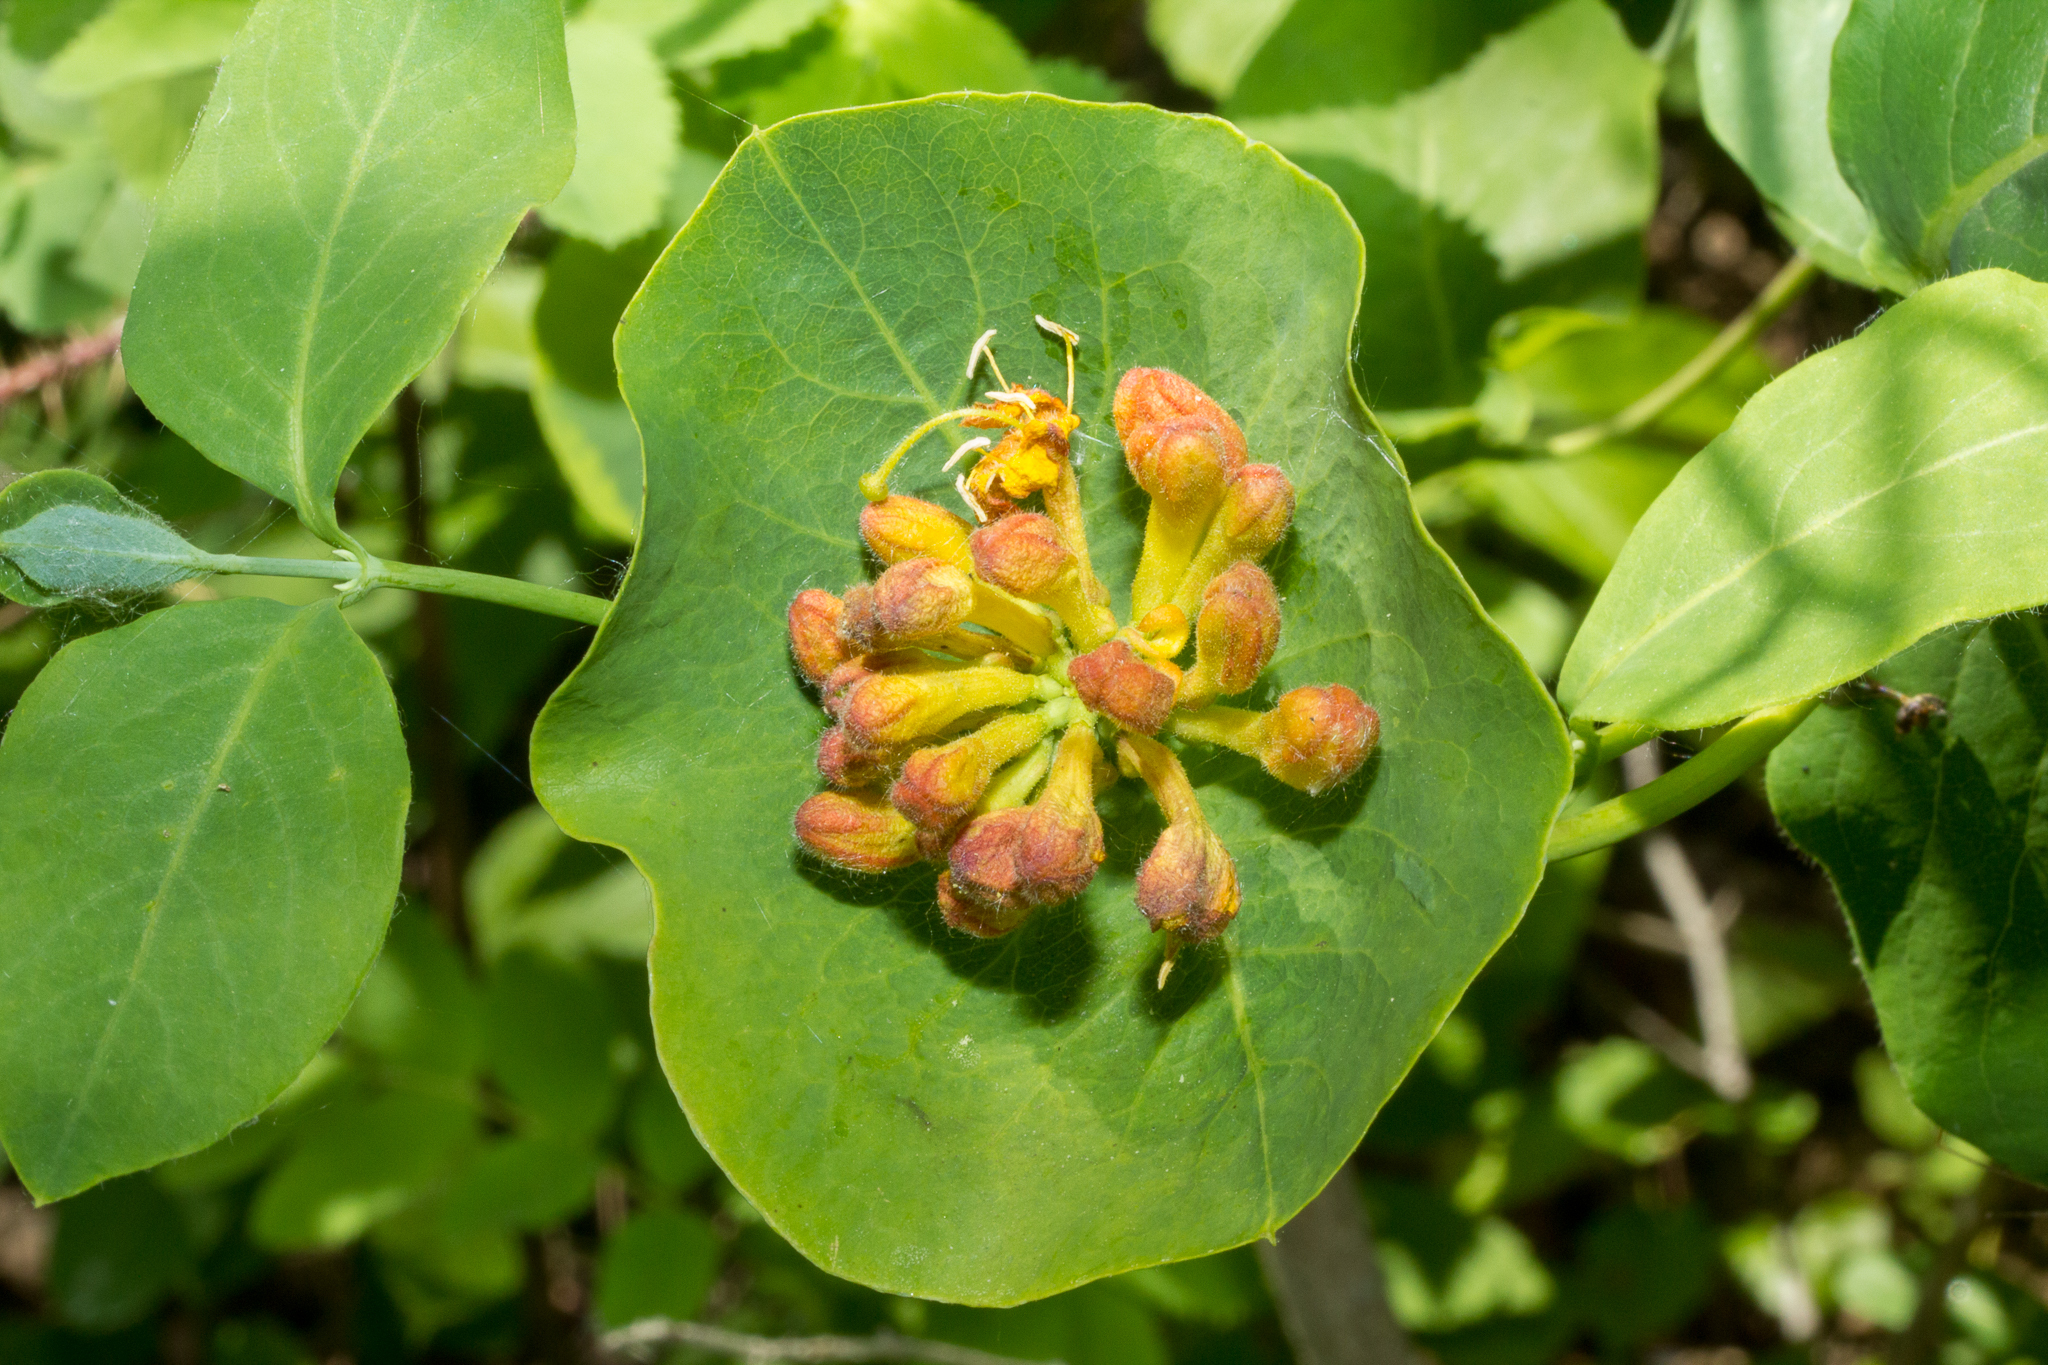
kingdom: Plantae
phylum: Tracheophyta
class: Magnoliopsida
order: Dipsacales
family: Caprifoliaceae
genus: Lonicera
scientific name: Lonicera dioica
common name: Limber honeysuckle
